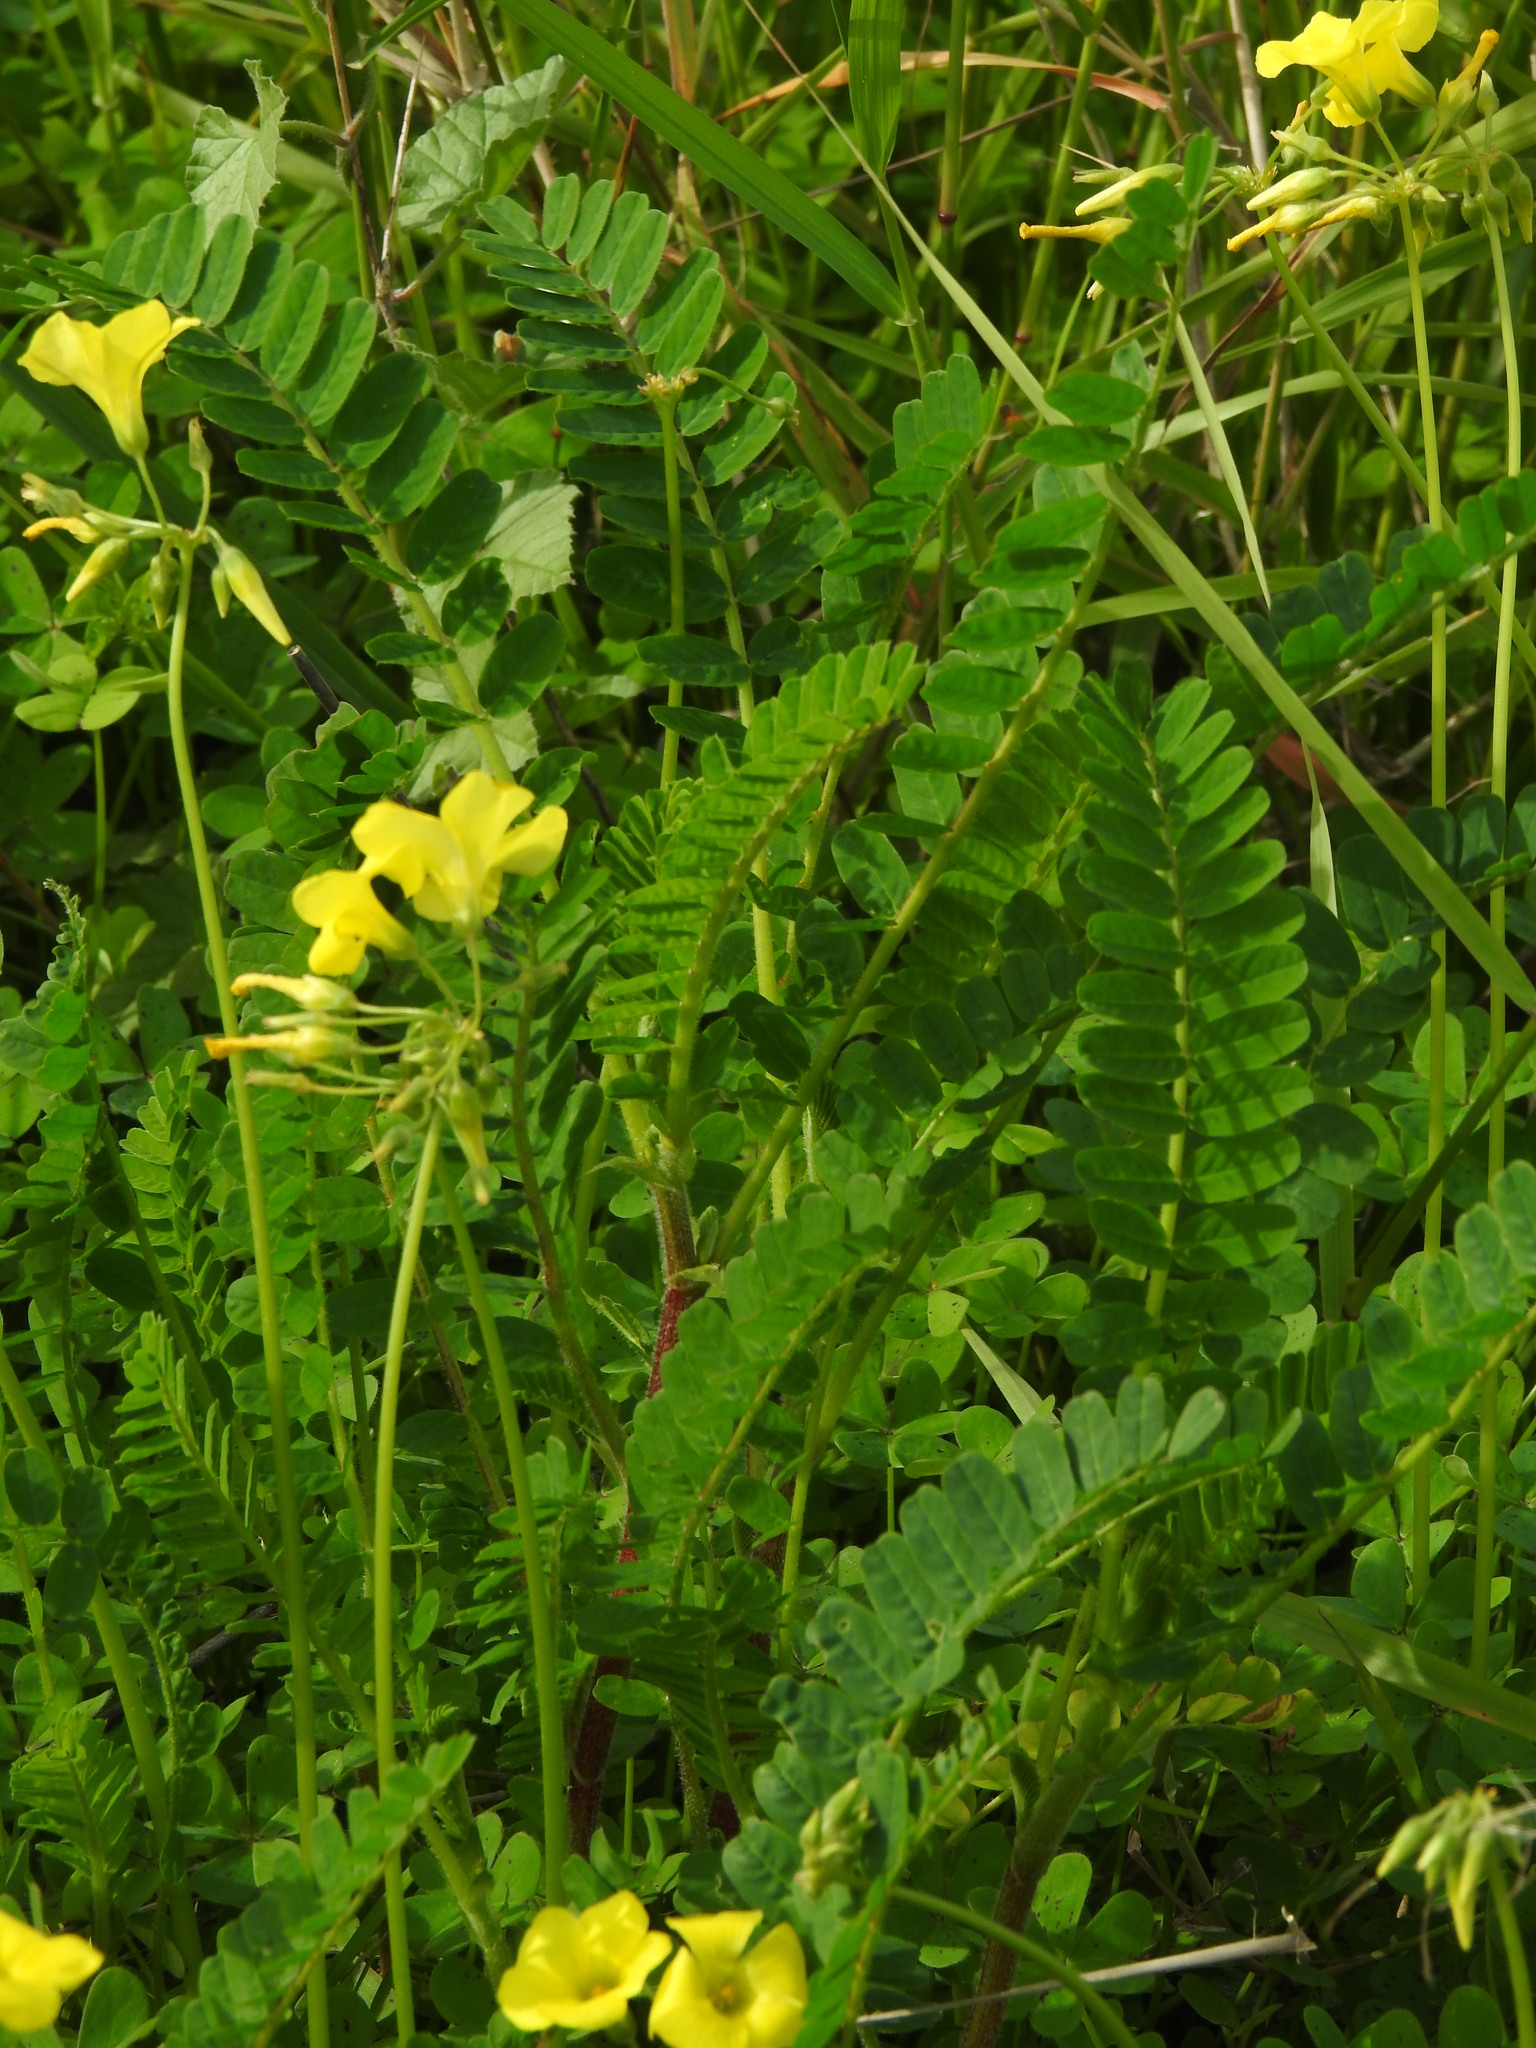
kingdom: Plantae
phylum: Tracheophyta
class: Magnoliopsida
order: Fabales
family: Fabaceae
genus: Astragalus
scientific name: Astragalus boeticus
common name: Milk-vetch
